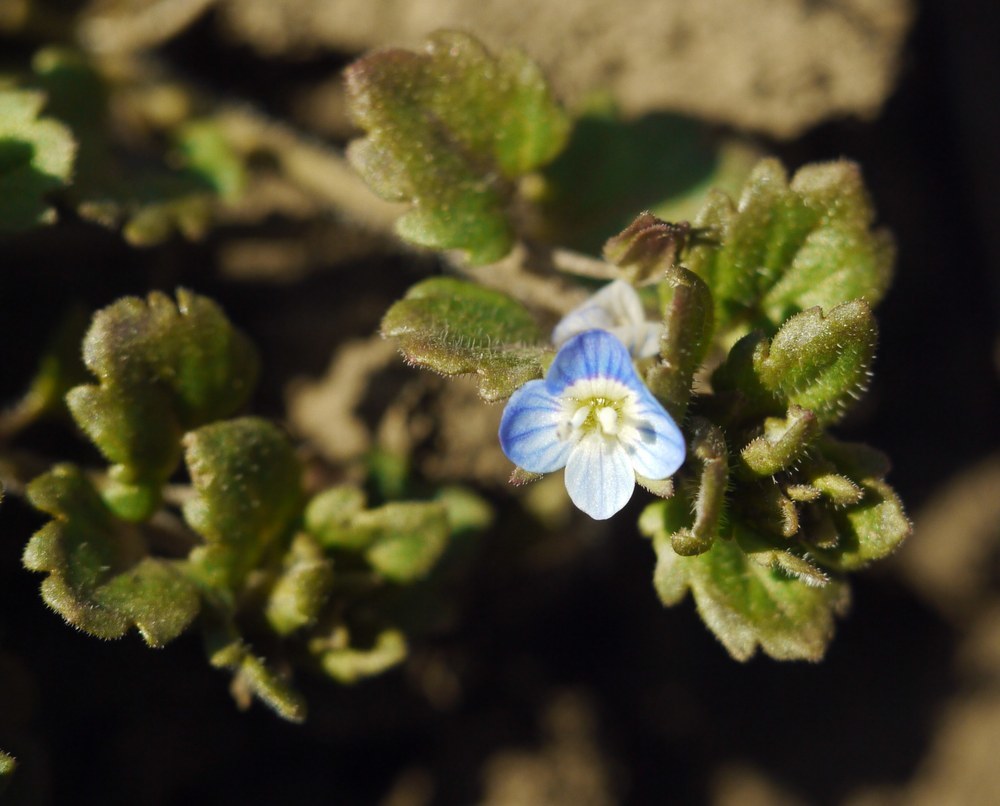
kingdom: Plantae
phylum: Tracheophyta
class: Magnoliopsida
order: Lamiales
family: Plantaginaceae
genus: Veronica
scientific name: Veronica polita
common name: Grey field-speedwell
